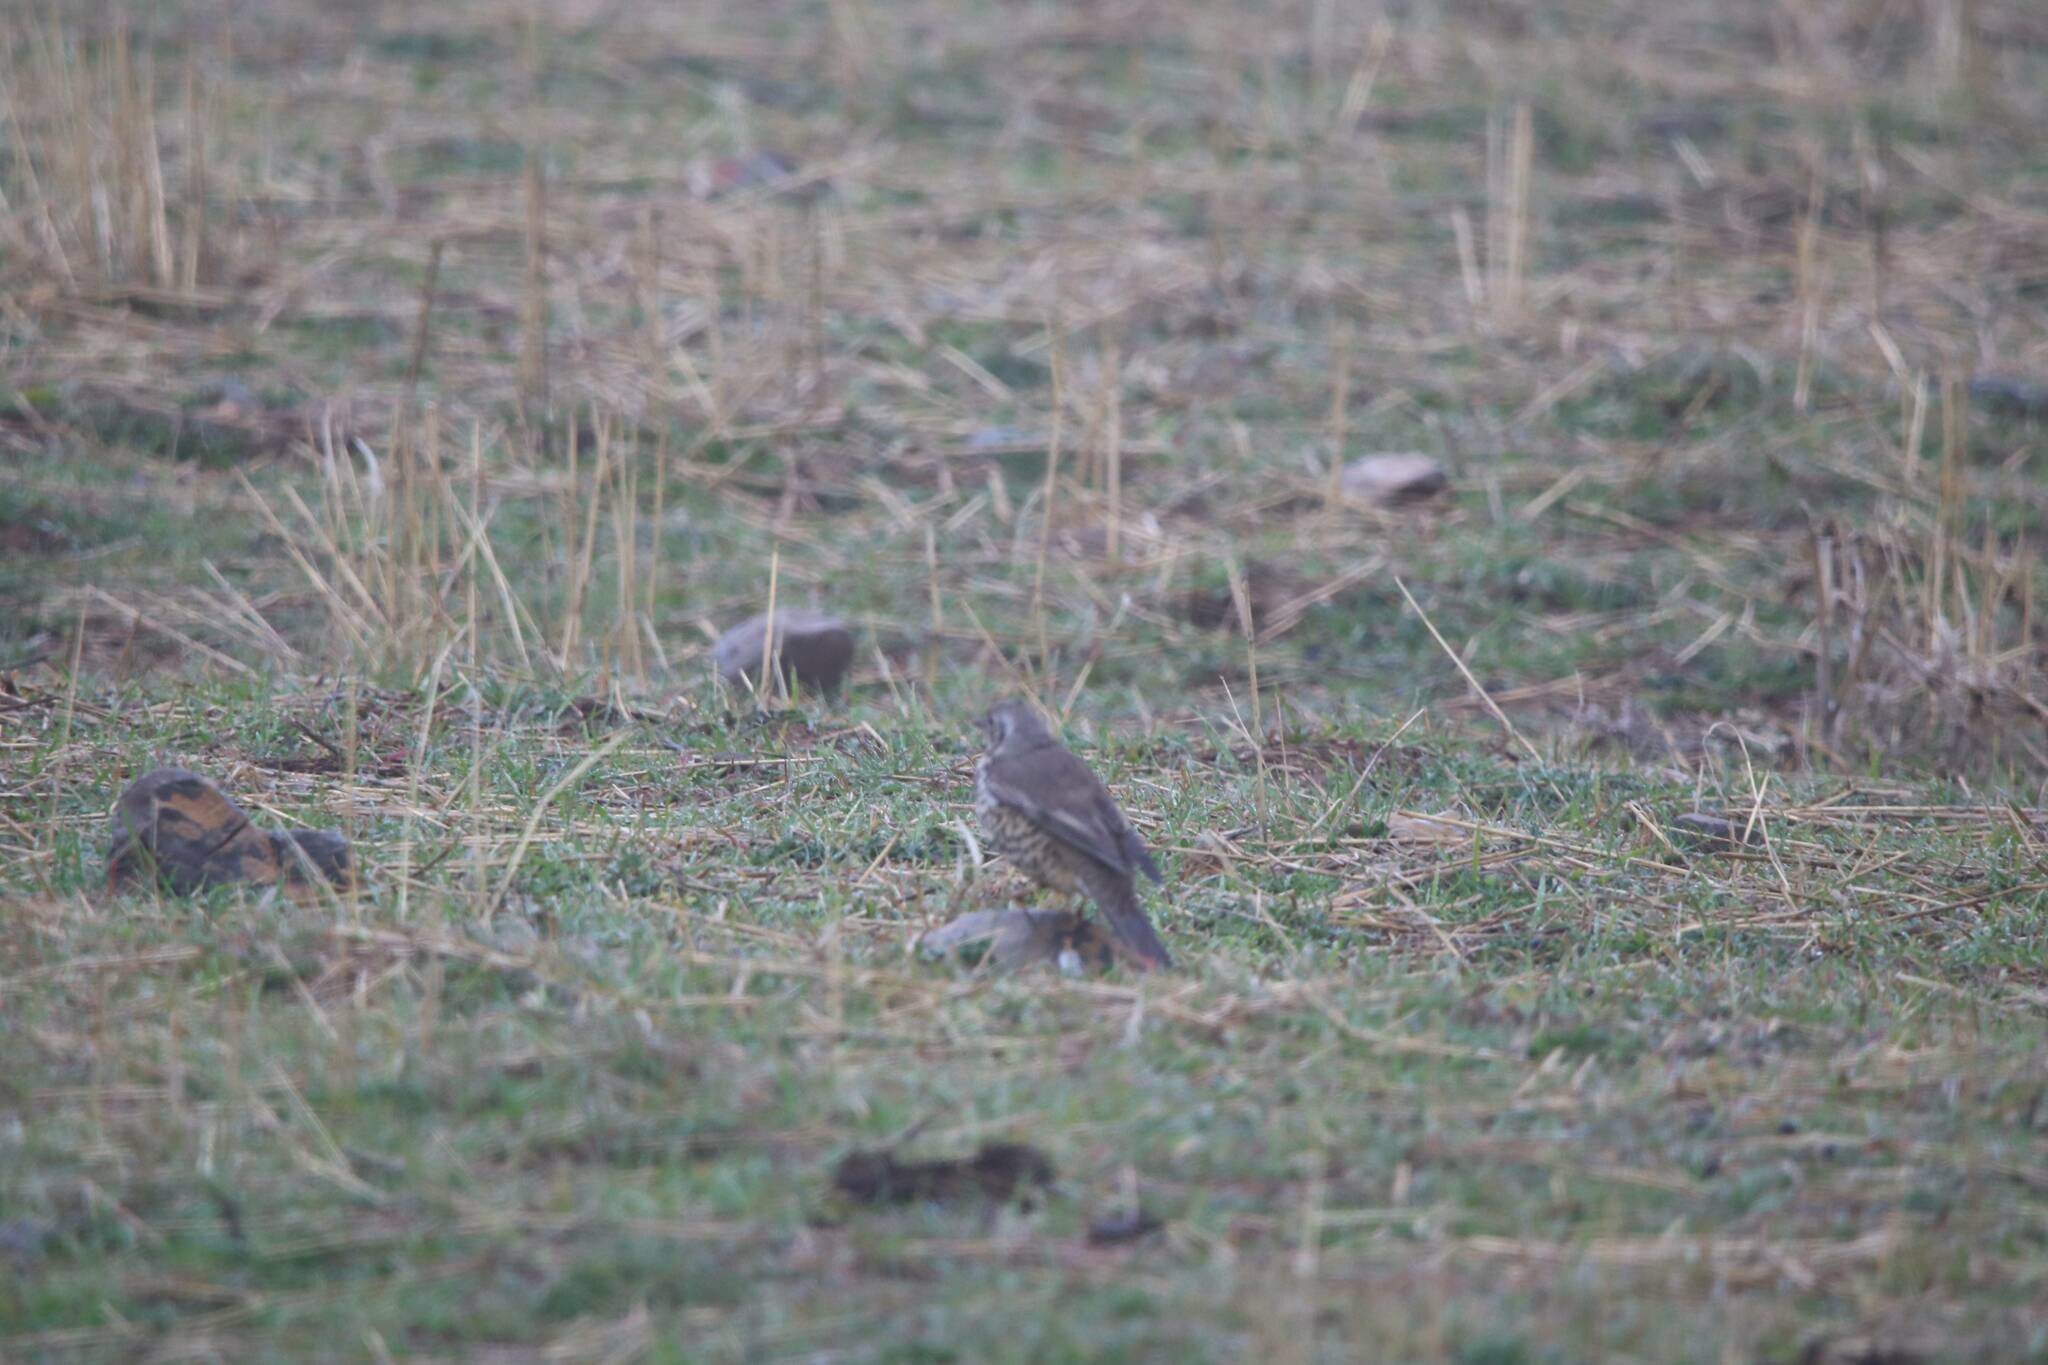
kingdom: Animalia
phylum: Chordata
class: Aves
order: Passeriformes
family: Turdidae
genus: Turdus
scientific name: Turdus viscivorus
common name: Mistle thrush
